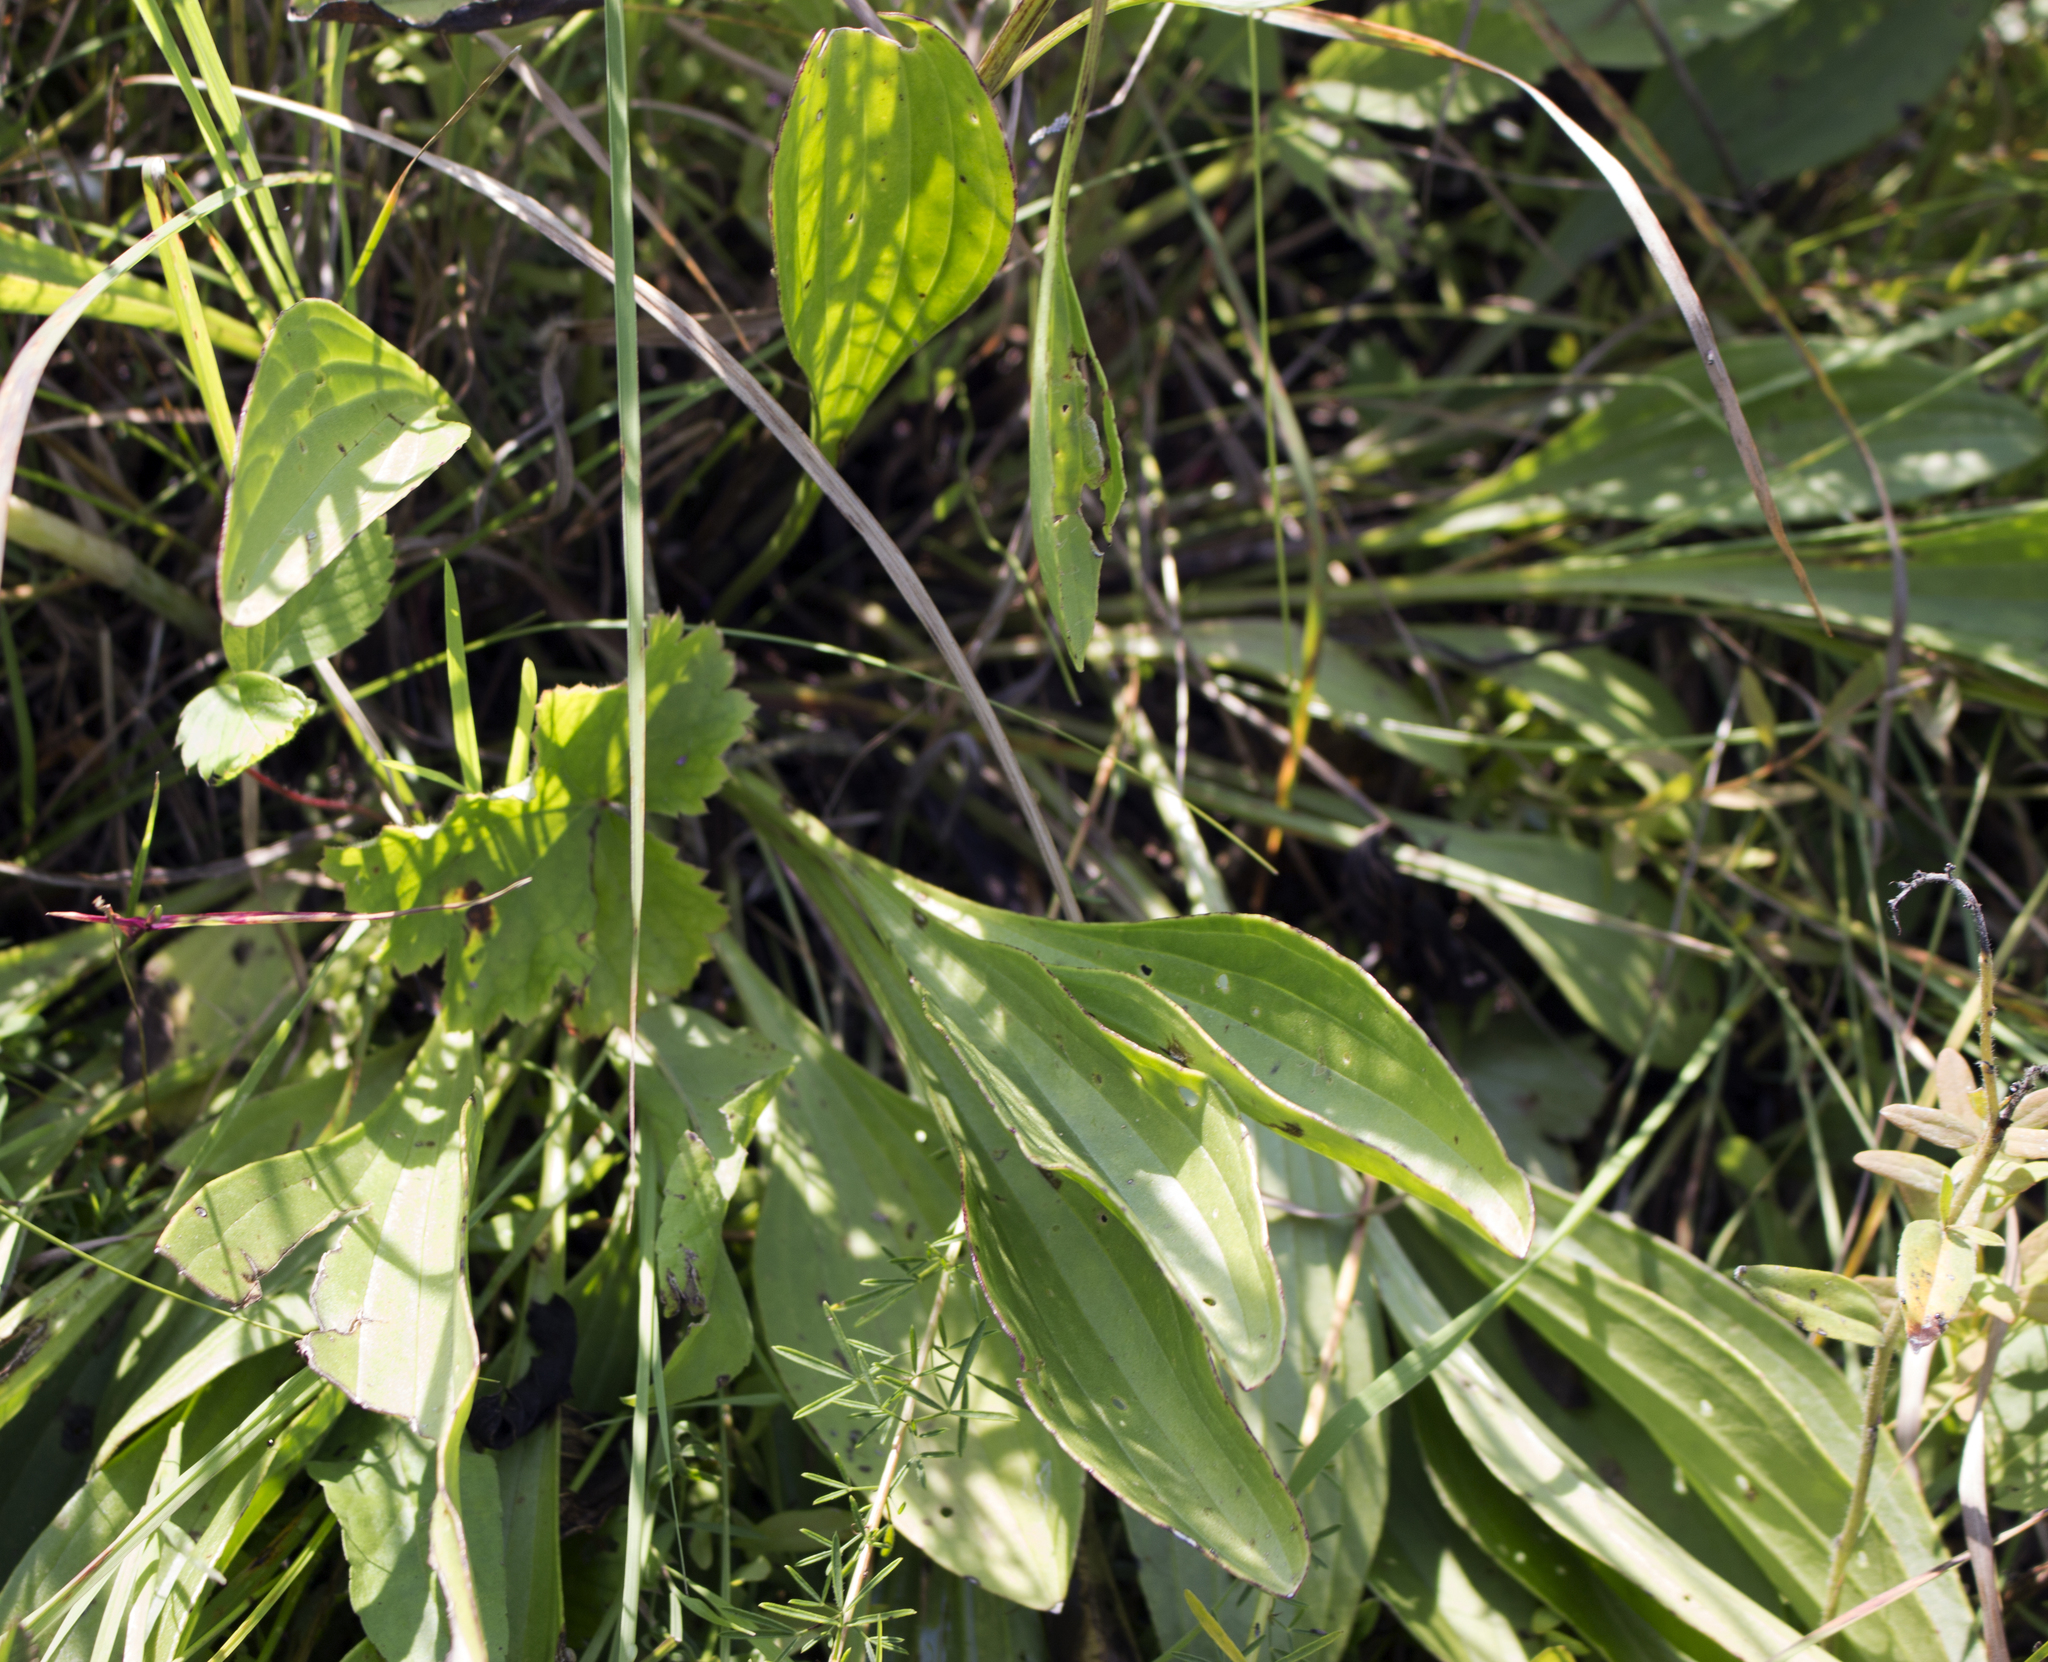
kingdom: Plantae
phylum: Tracheophyta
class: Magnoliopsida
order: Asterales
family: Asteraceae
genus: Arnoglossum
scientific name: Arnoglossum plantagineum
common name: Groove-stemmed indian-plantain
